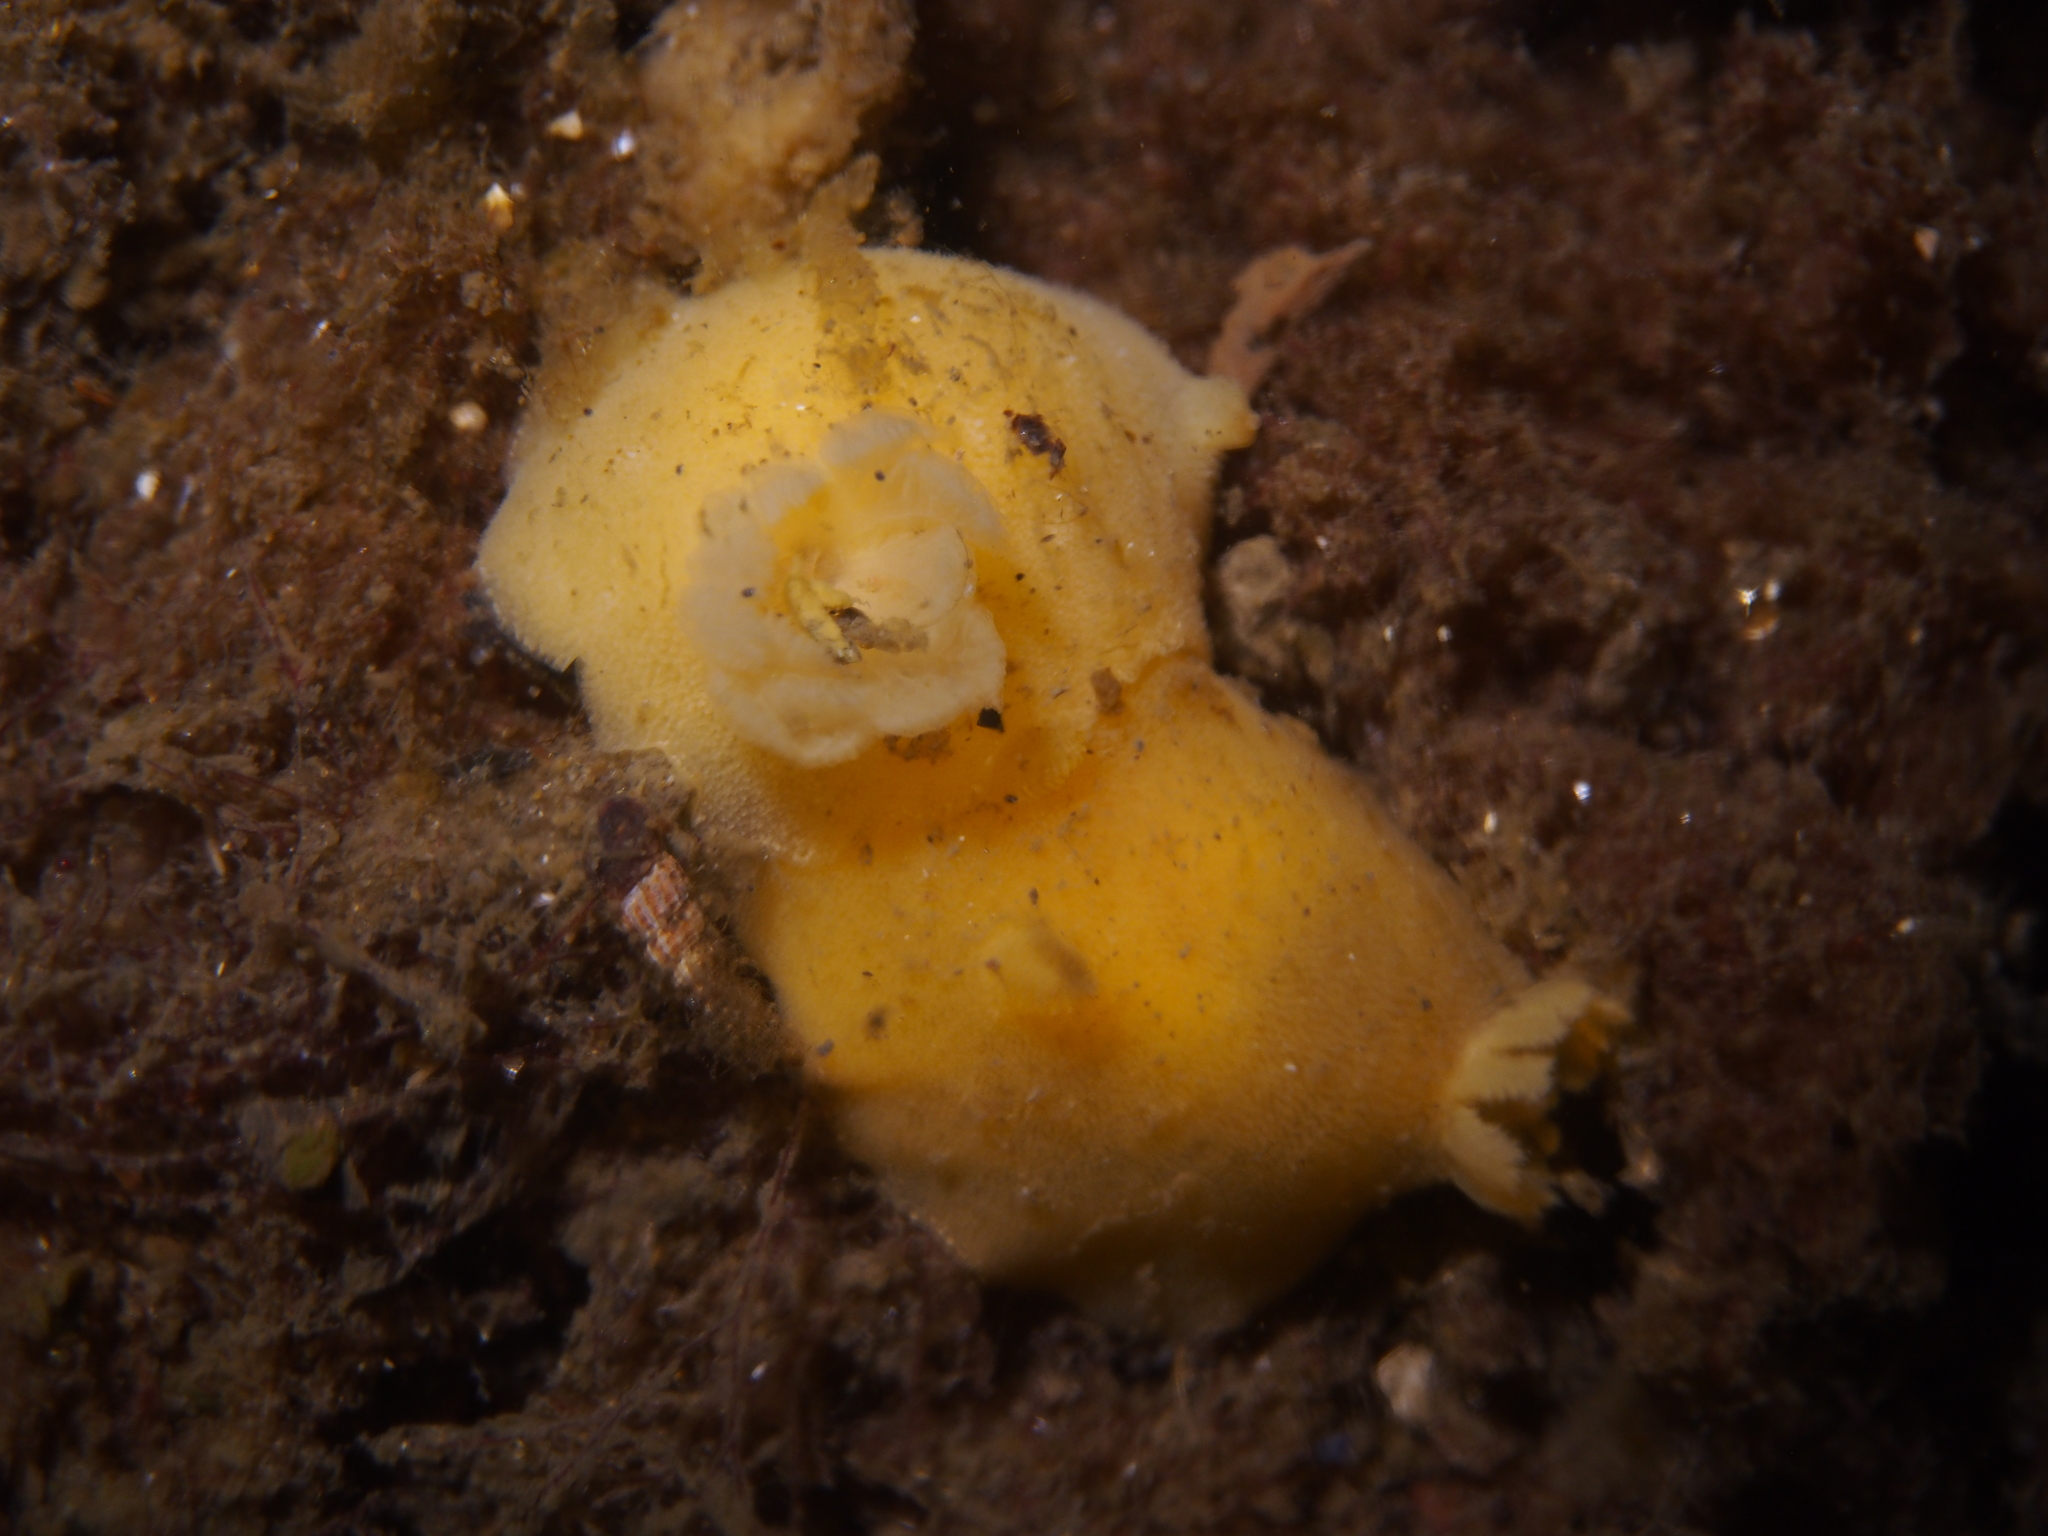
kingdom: Animalia
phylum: Mollusca
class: Gastropoda
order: Nudibranchia
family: Discodorididae
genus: Jorunna
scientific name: Jorunna tomentosa
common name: Grey sea slug
